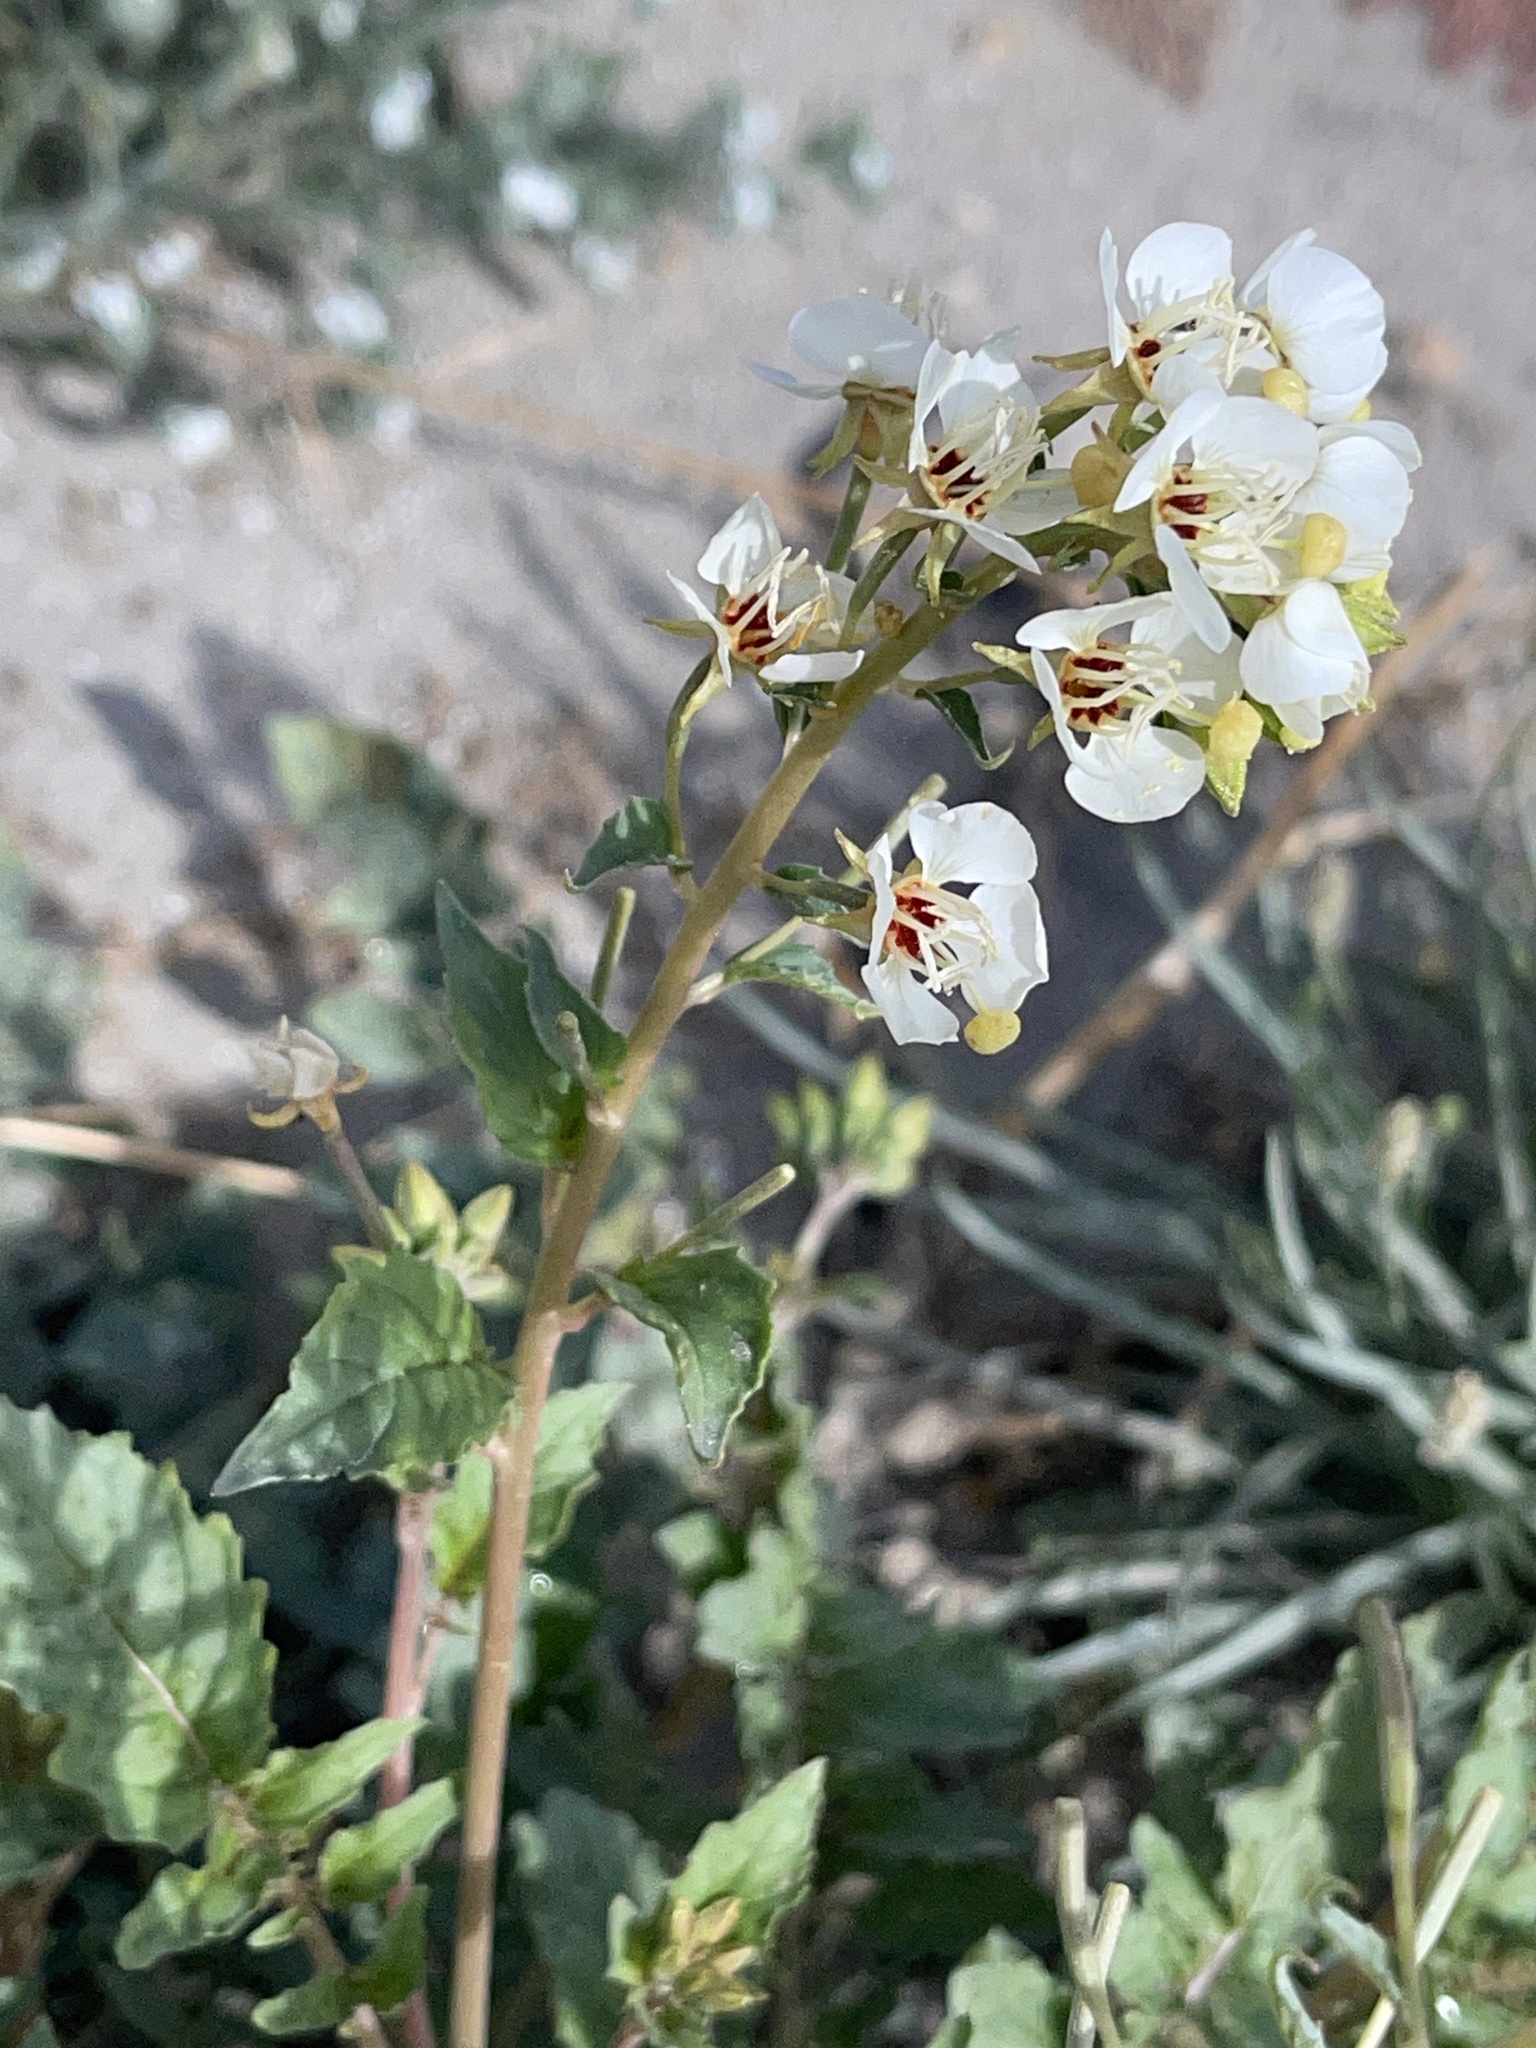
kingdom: Plantae
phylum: Tracheophyta
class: Magnoliopsida
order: Myrtales
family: Onagraceae
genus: Chylismia
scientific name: Chylismia claviformis
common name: Browneyes
